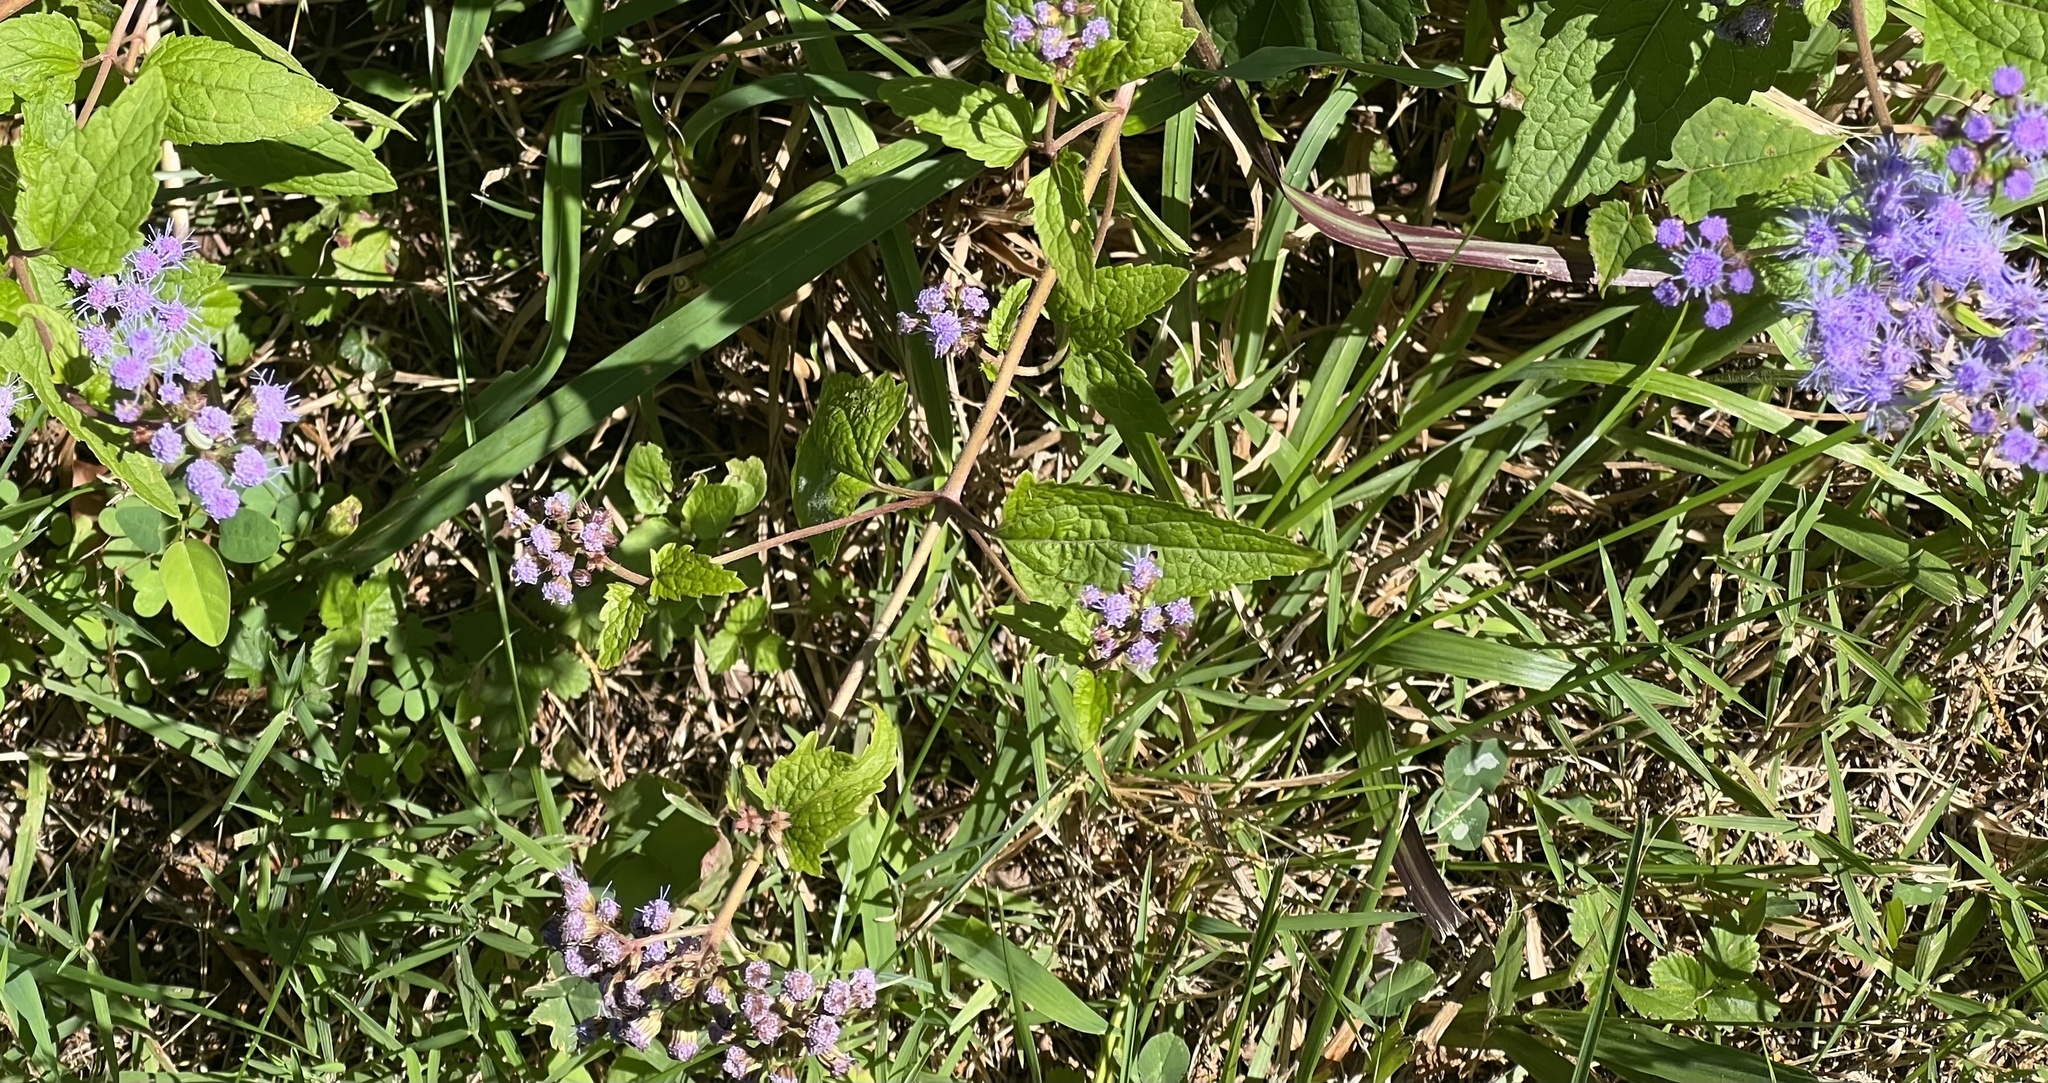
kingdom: Plantae
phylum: Tracheophyta
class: Magnoliopsida
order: Asterales
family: Asteraceae
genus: Conoclinium
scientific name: Conoclinium coelestinum
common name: Blue mistflower
